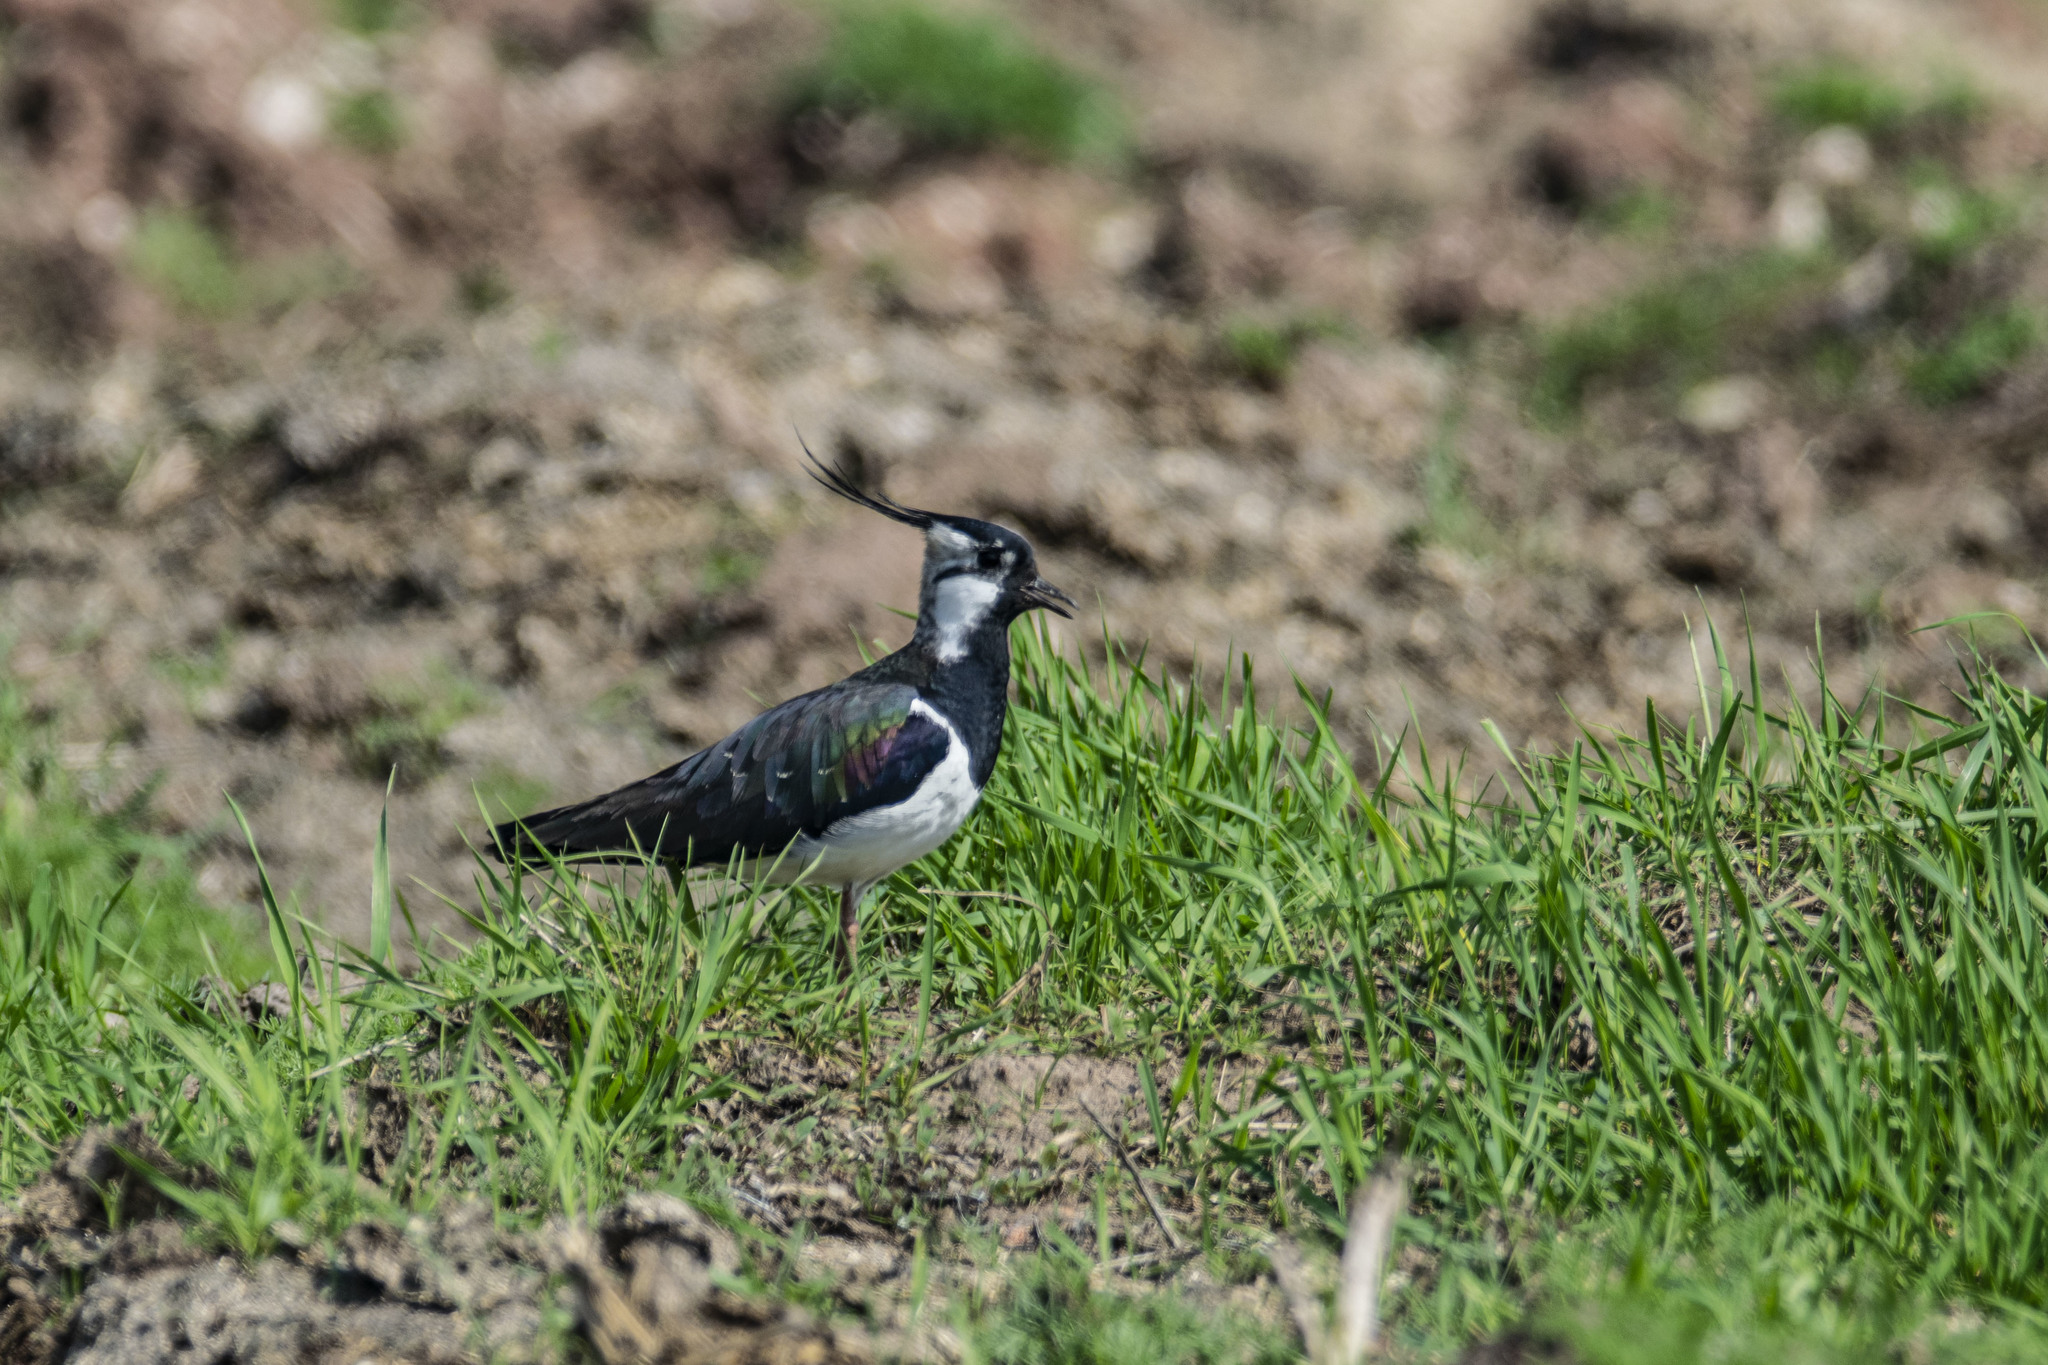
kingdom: Animalia
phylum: Chordata
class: Aves
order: Charadriiformes
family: Charadriidae
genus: Vanellus
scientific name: Vanellus vanellus
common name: Northern lapwing
